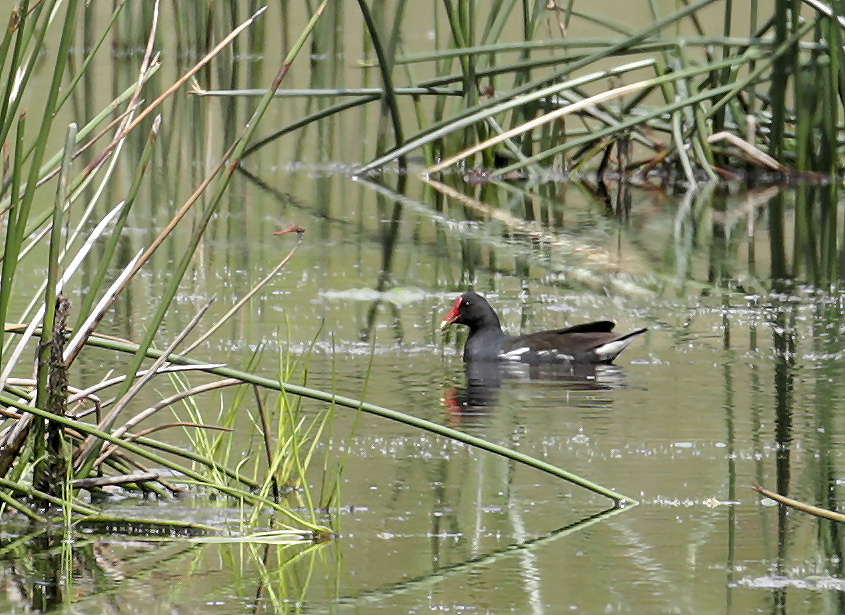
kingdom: Animalia
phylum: Chordata
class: Aves
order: Gruiformes
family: Rallidae
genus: Gallinula
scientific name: Gallinula chloropus
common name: Common moorhen
